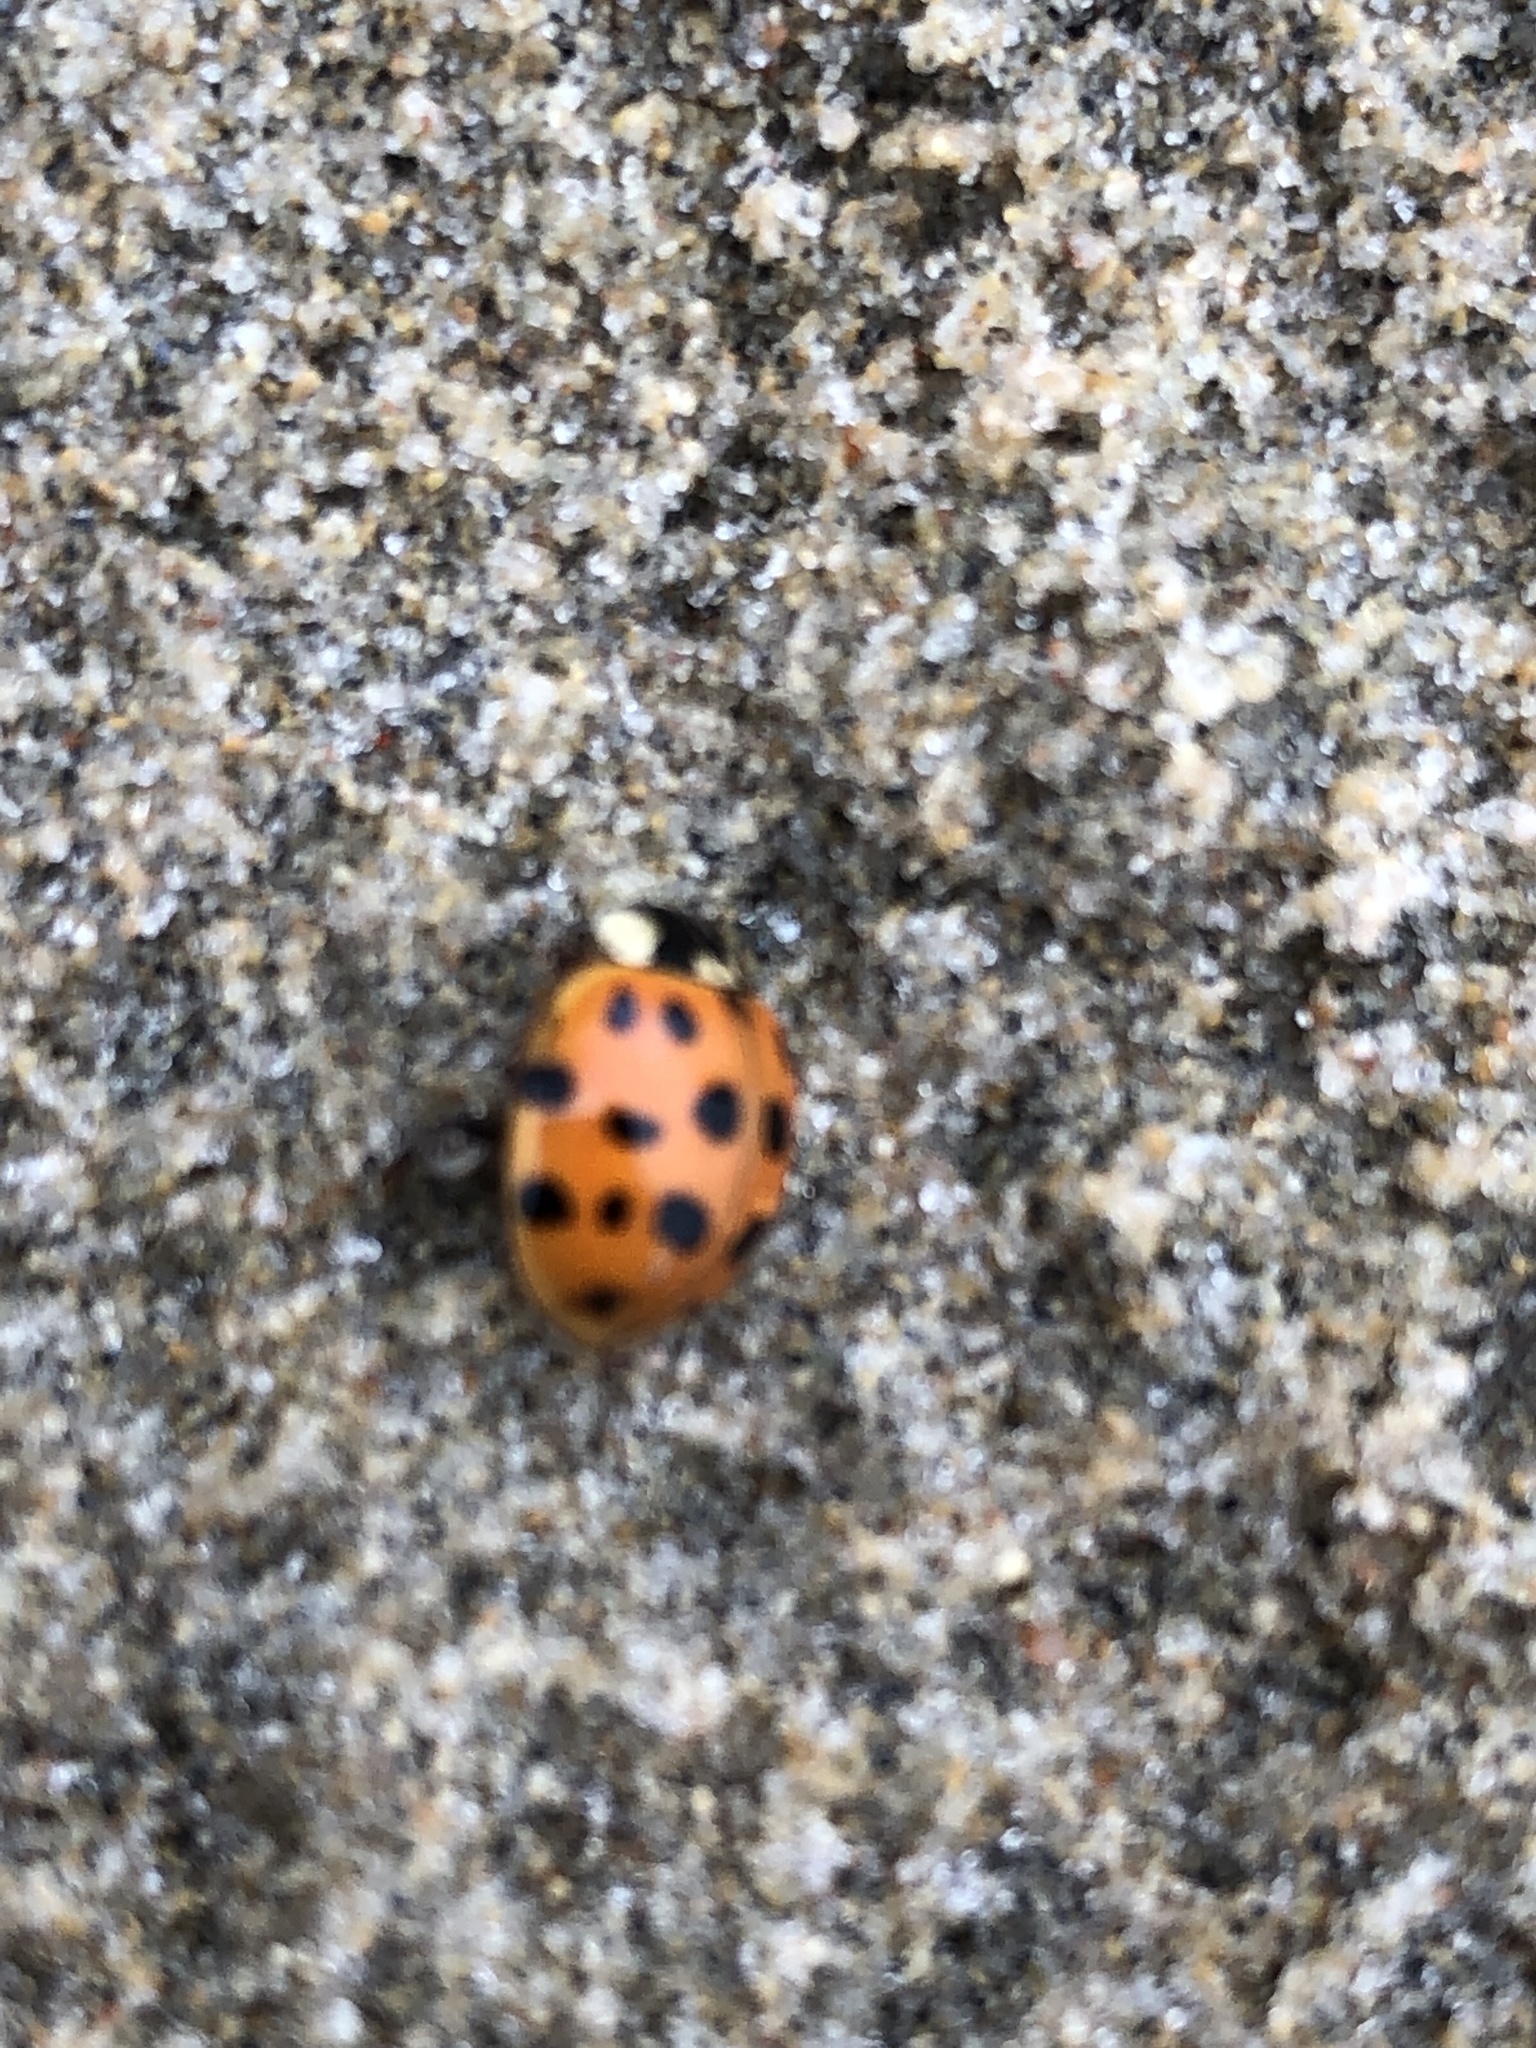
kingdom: Animalia
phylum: Arthropoda
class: Insecta
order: Coleoptera
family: Coccinellidae
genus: Harmonia
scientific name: Harmonia axyridis
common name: Harlequin ladybird
